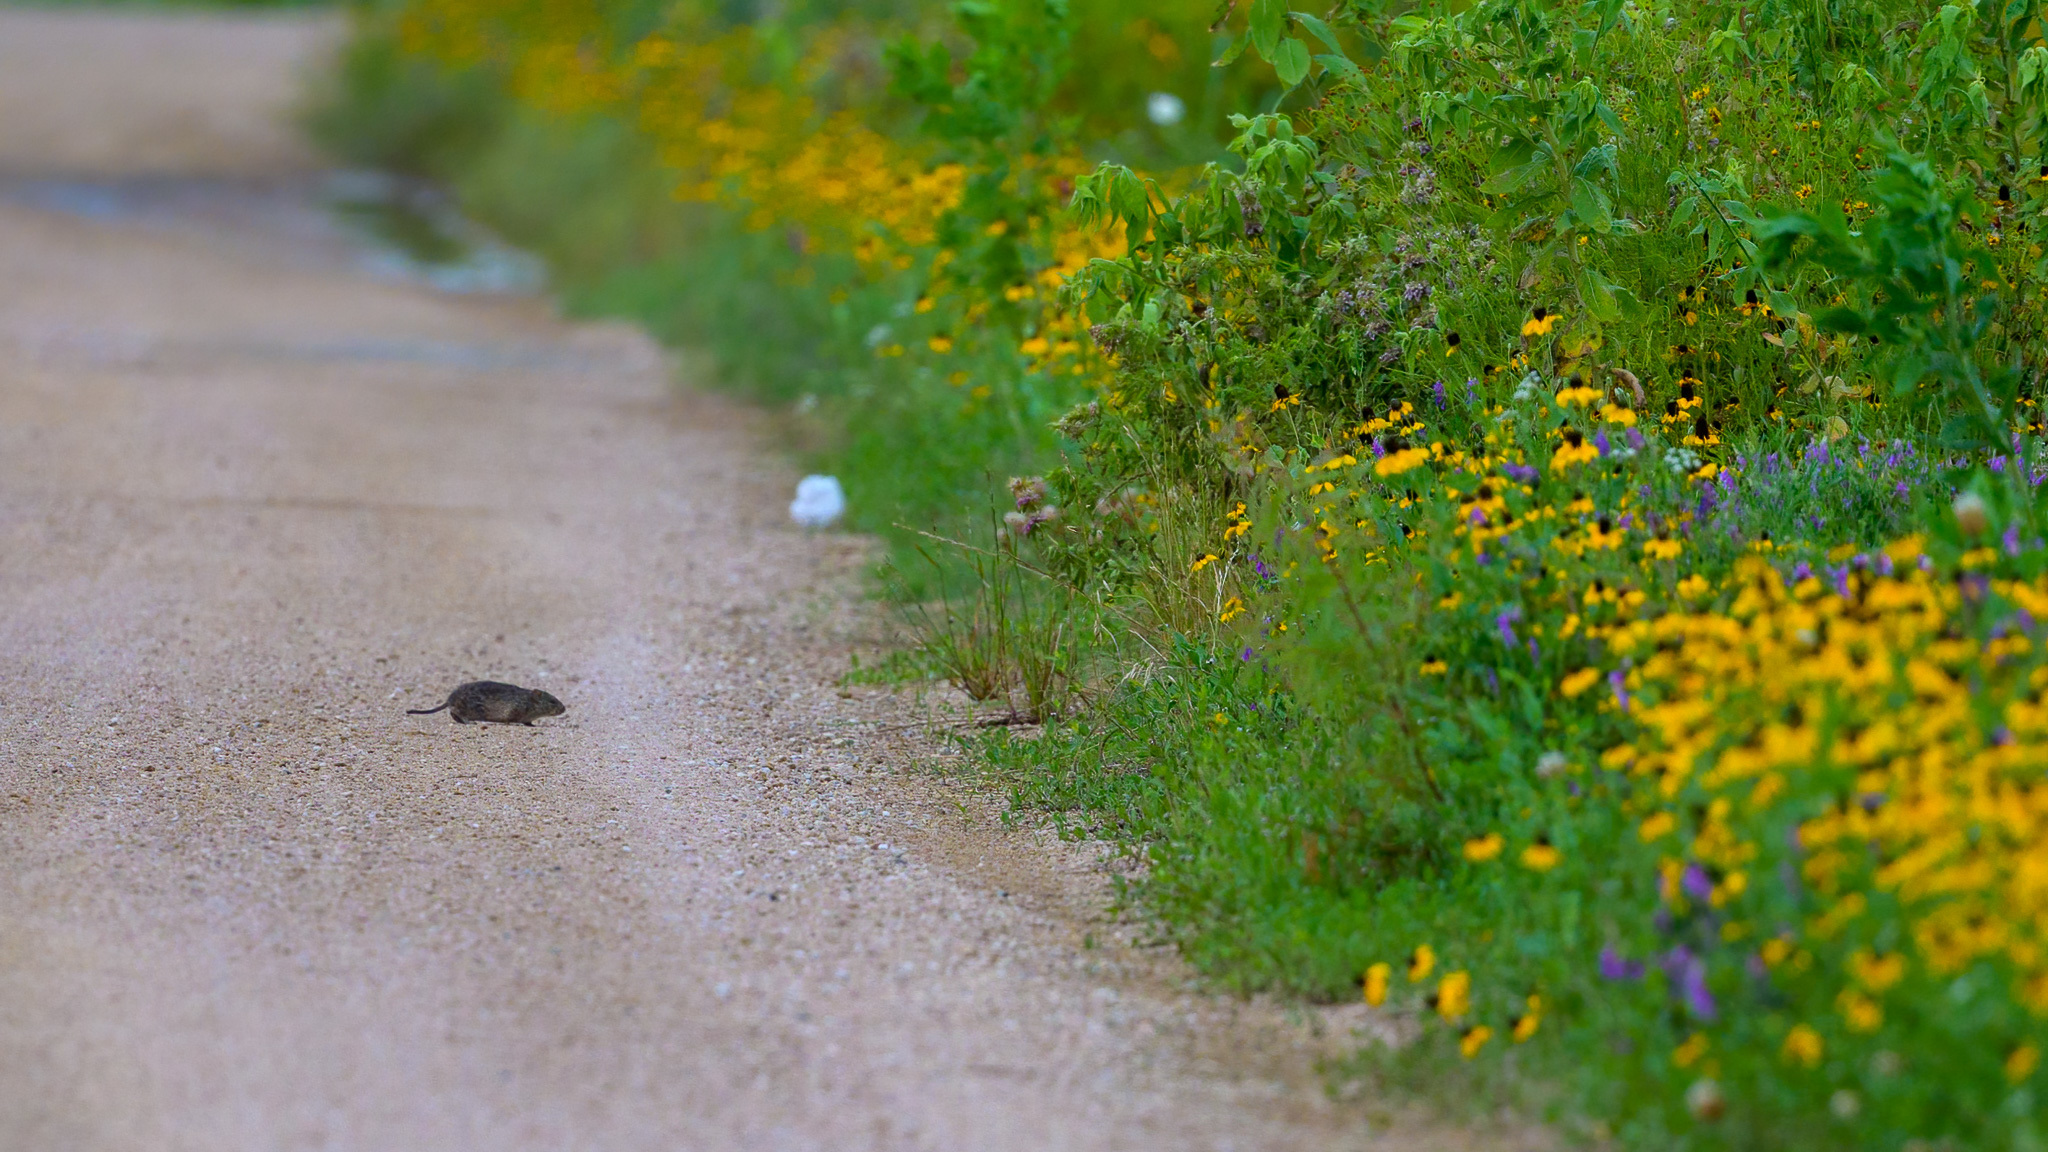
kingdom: Animalia
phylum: Chordata
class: Mammalia
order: Rodentia
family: Cricetidae
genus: Sigmodon
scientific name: Sigmodon hispidus
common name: Hispid cotton rat
